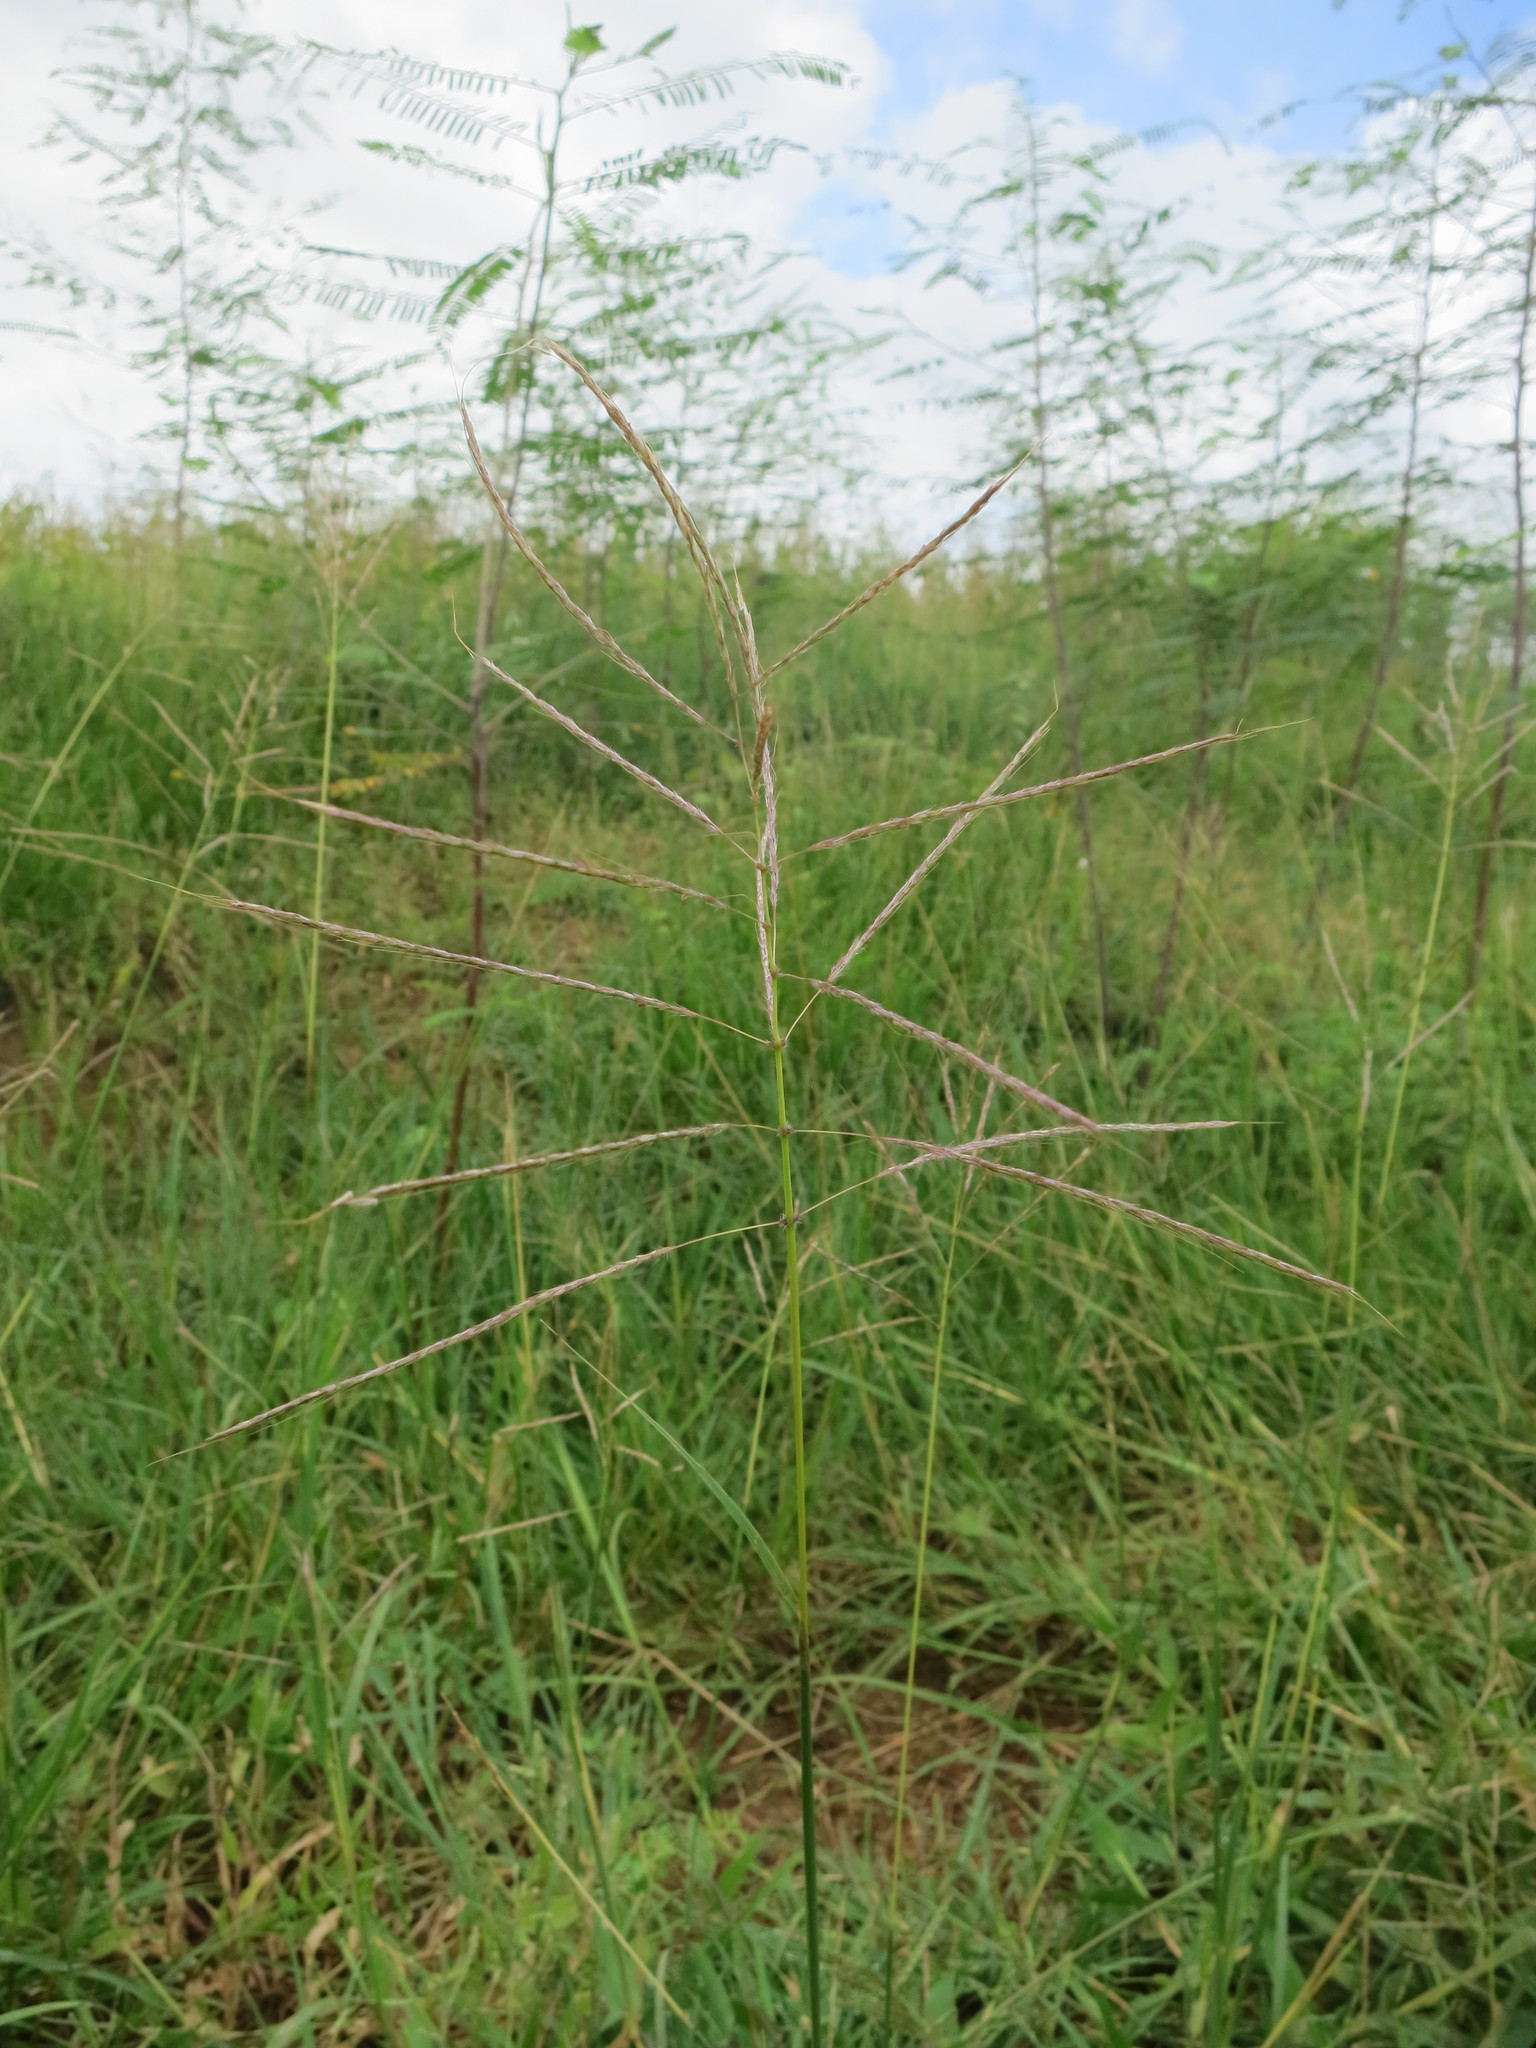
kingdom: Plantae
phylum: Tracheophyta
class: Liliopsida
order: Poales
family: Poaceae
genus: Bothriochloa
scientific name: Bothriochloa pertusa
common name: Pitted beardgrass
